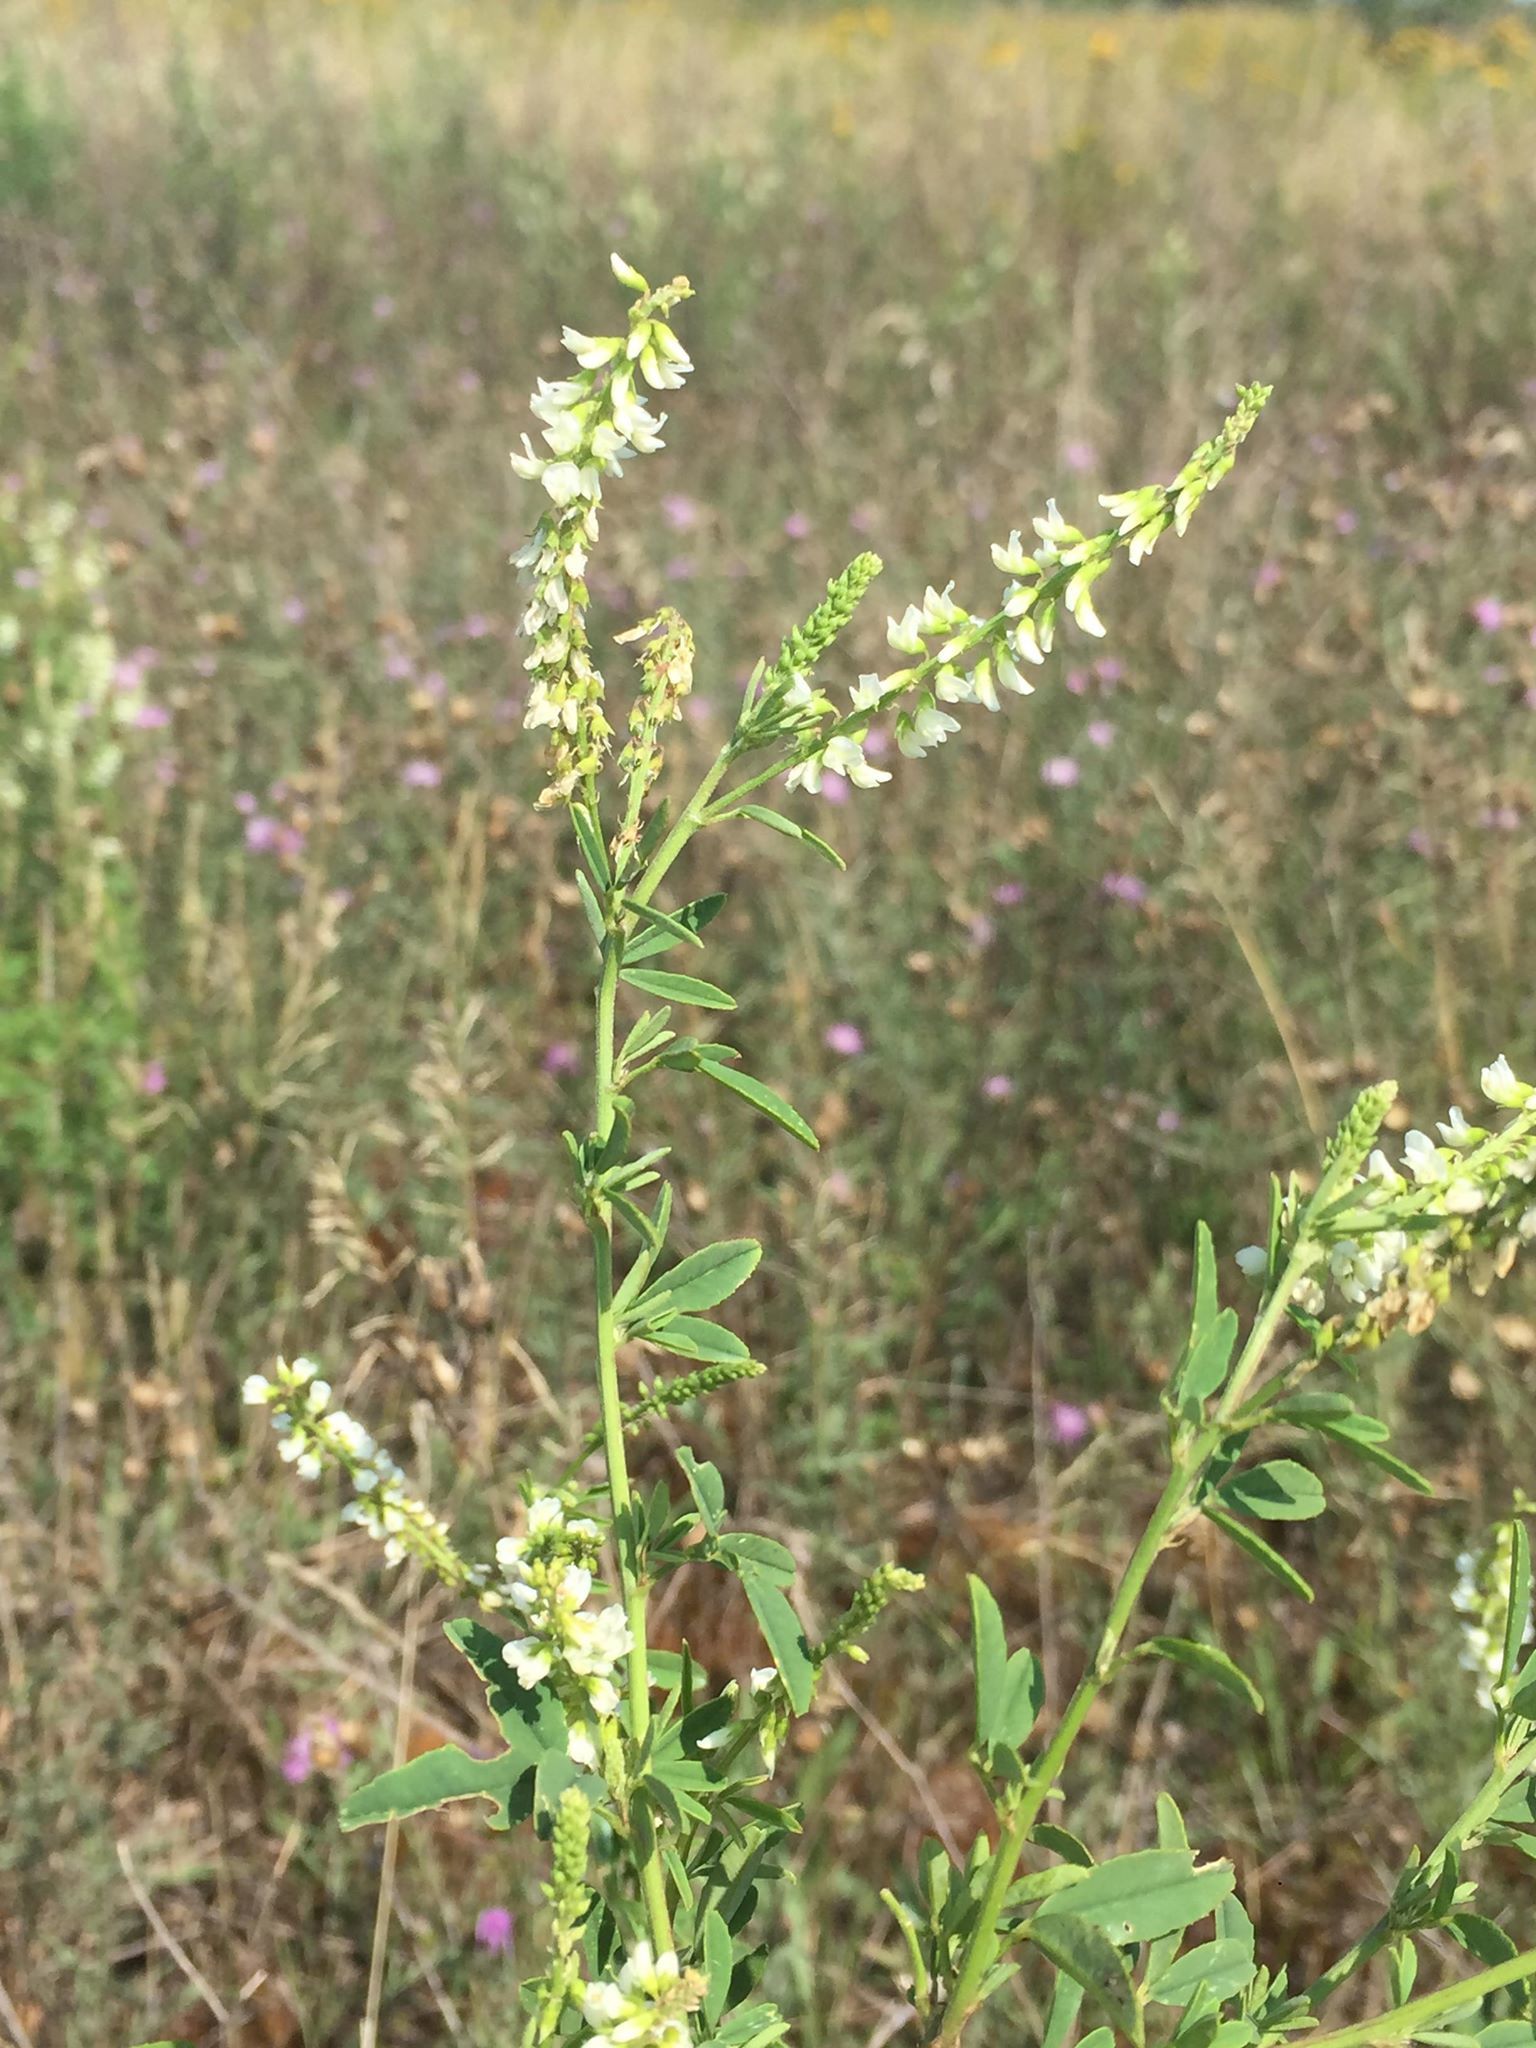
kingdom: Plantae
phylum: Tracheophyta
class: Magnoliopsida
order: Fabales
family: Fabaceae
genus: Melilotus
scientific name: Melilotus albus
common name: White melilot
